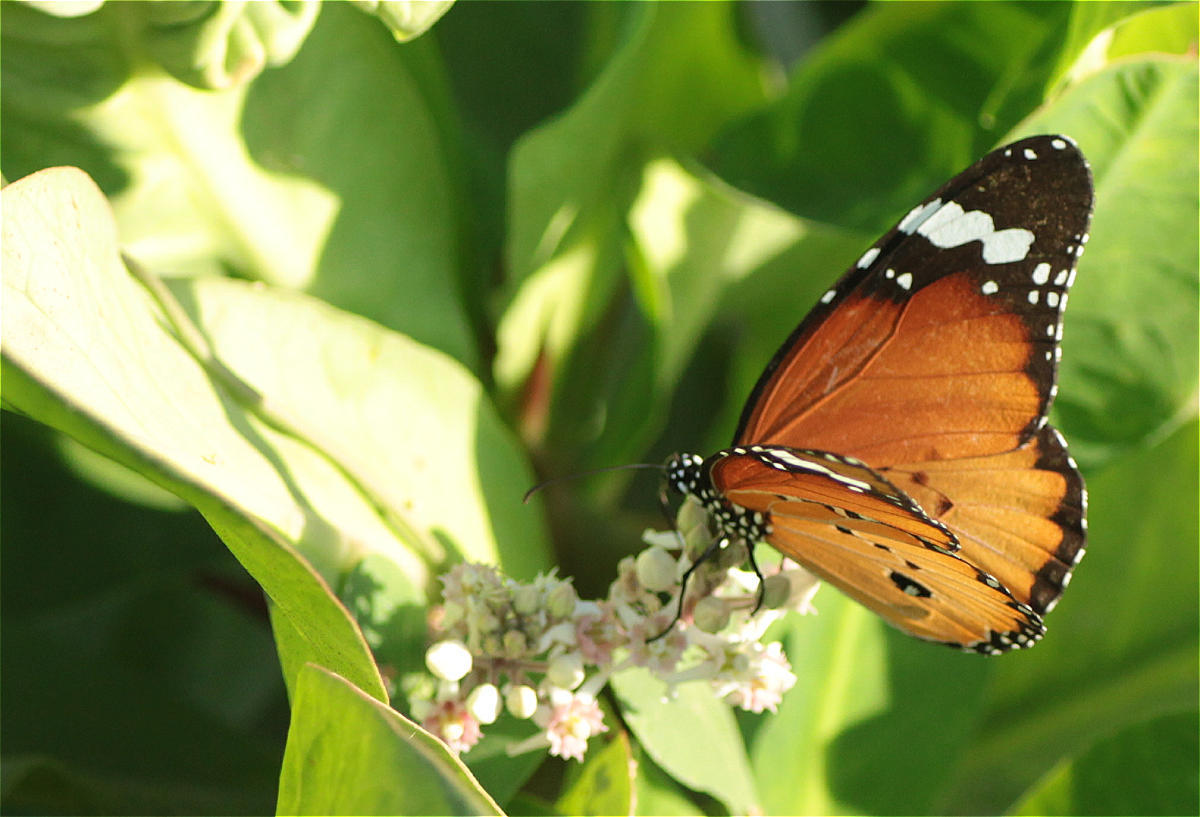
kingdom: Animalia
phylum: Arthropoda
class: Insecta
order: Lepidoptera
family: Nymphalidae
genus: Danaus
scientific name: Danaus chrysippus
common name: Plain tiger
